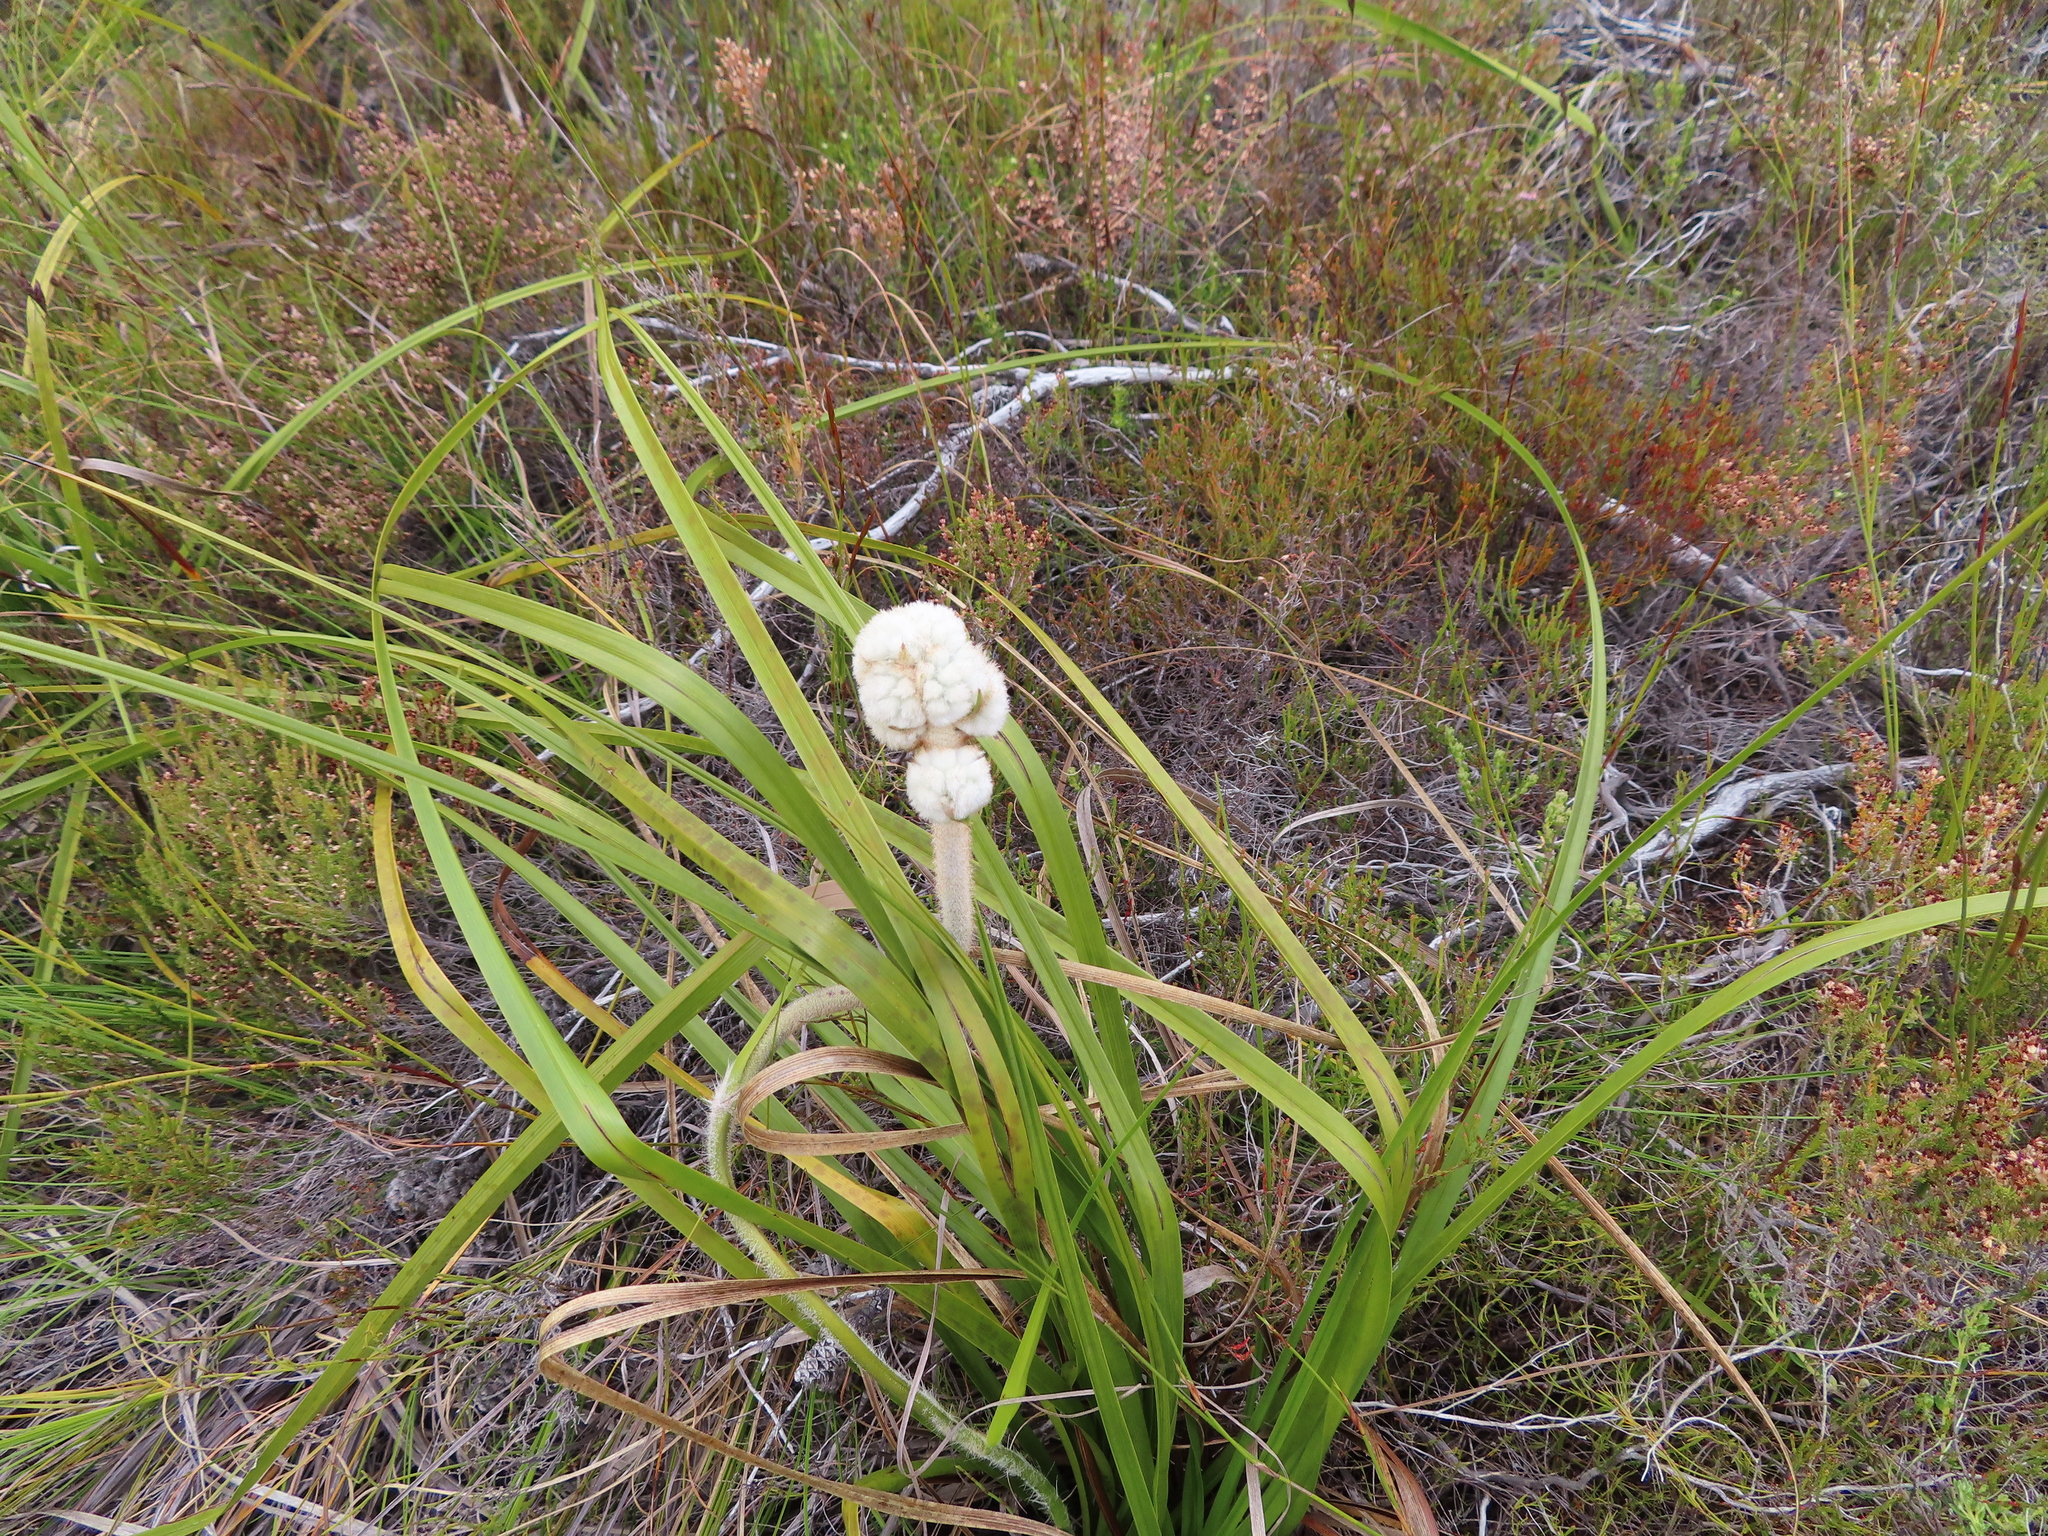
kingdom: Plantae
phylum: Tracheophyta
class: Liliopsida
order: Asparagales
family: Lanariaceae
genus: Lanaria
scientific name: Lanaria lanata
